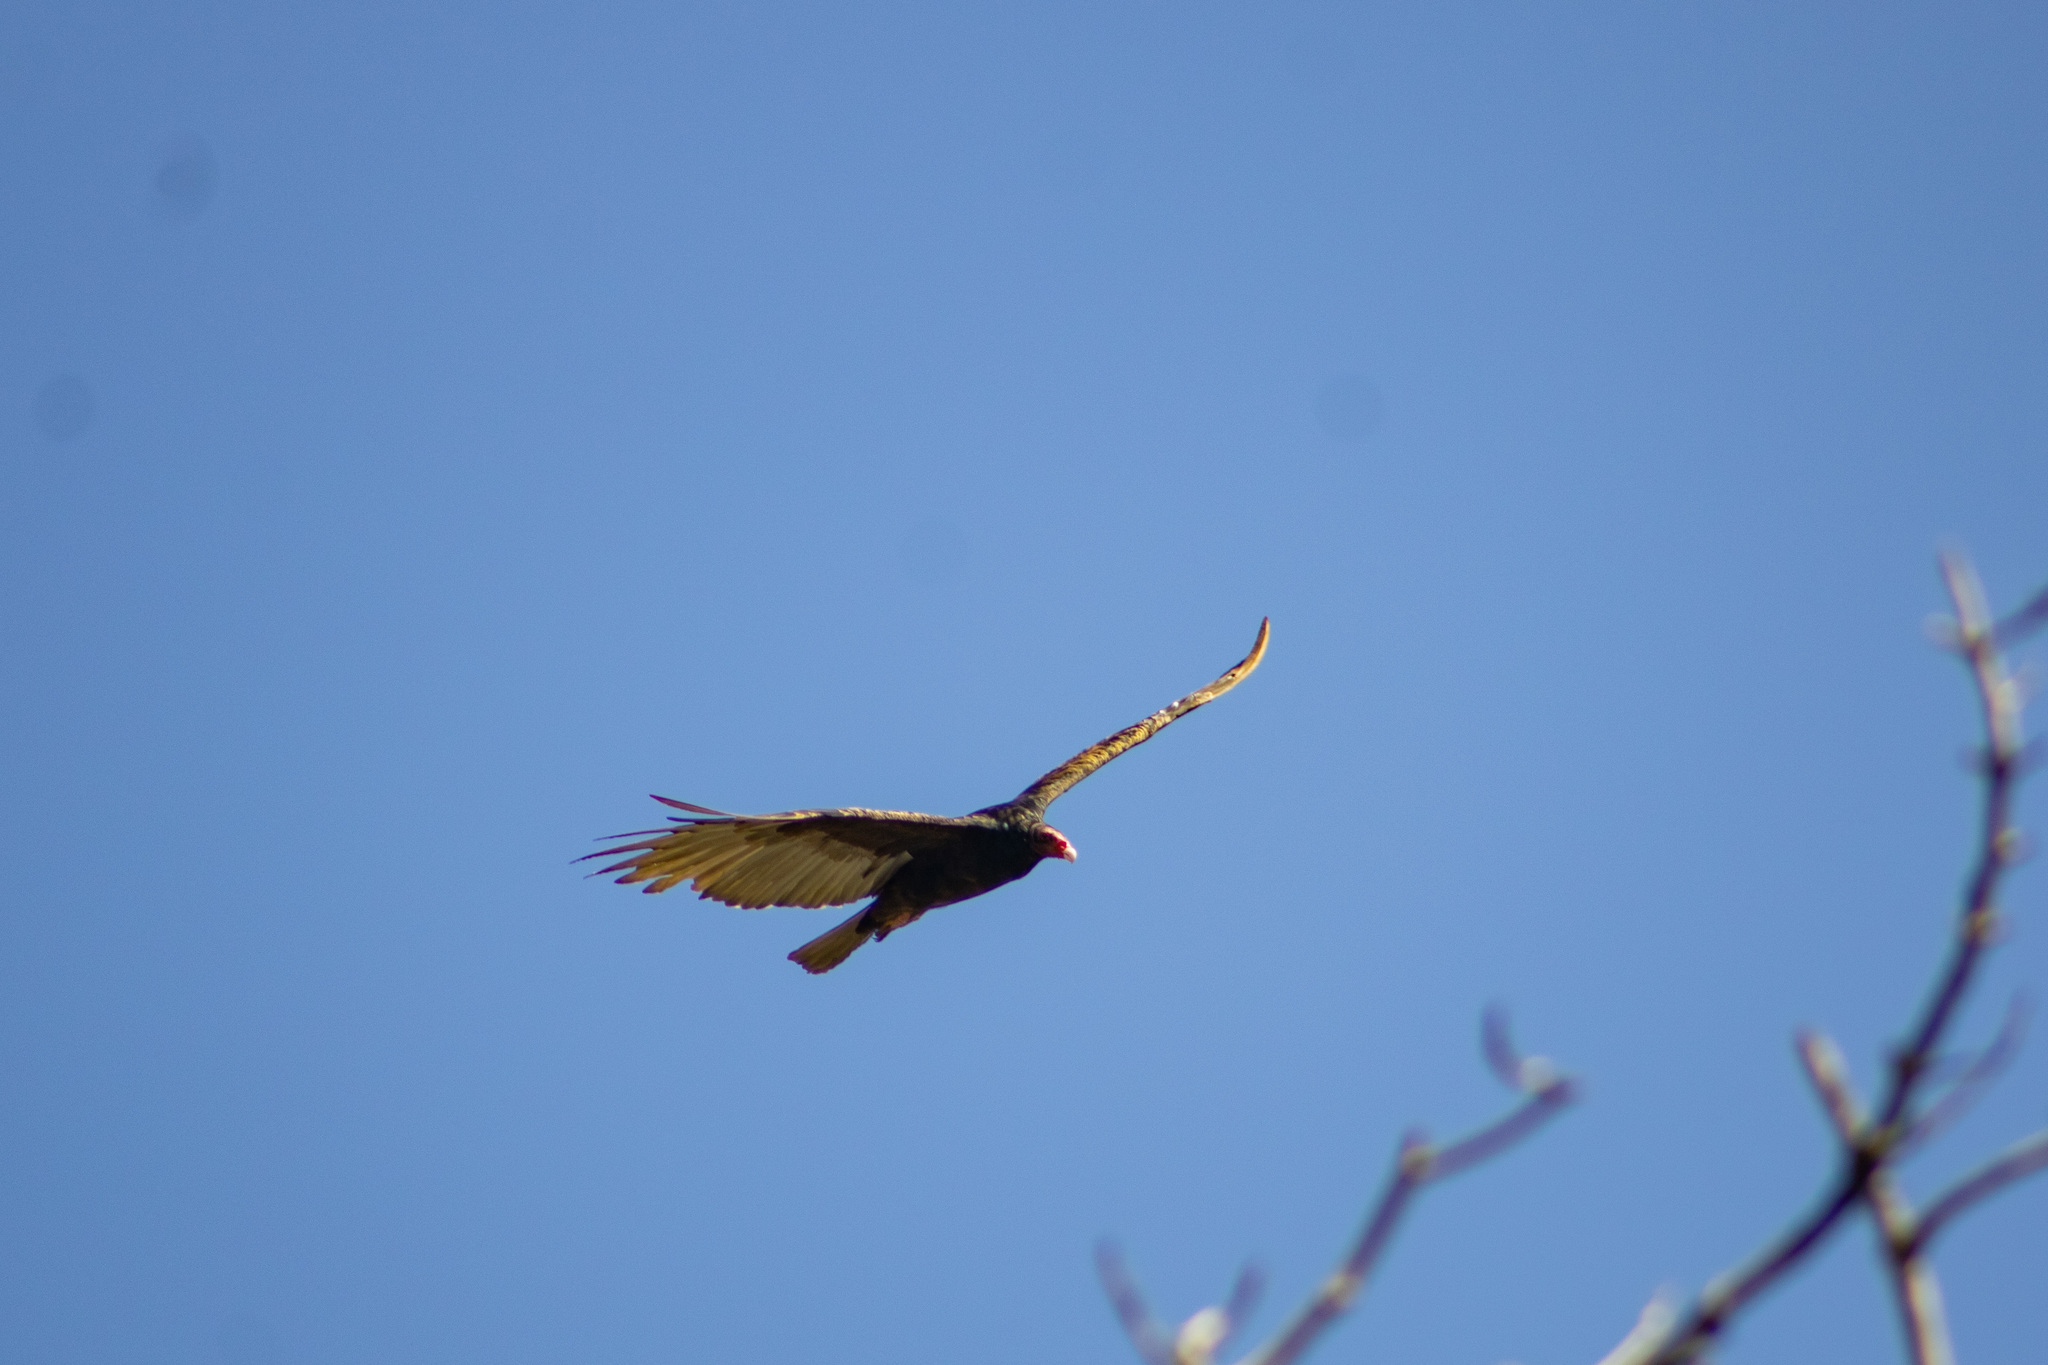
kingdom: Animalia
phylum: Chordata
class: Aves
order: Accipitriformes
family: Cathartidae
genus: Cathartes
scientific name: Cathartes aura
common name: Turkey vulture
